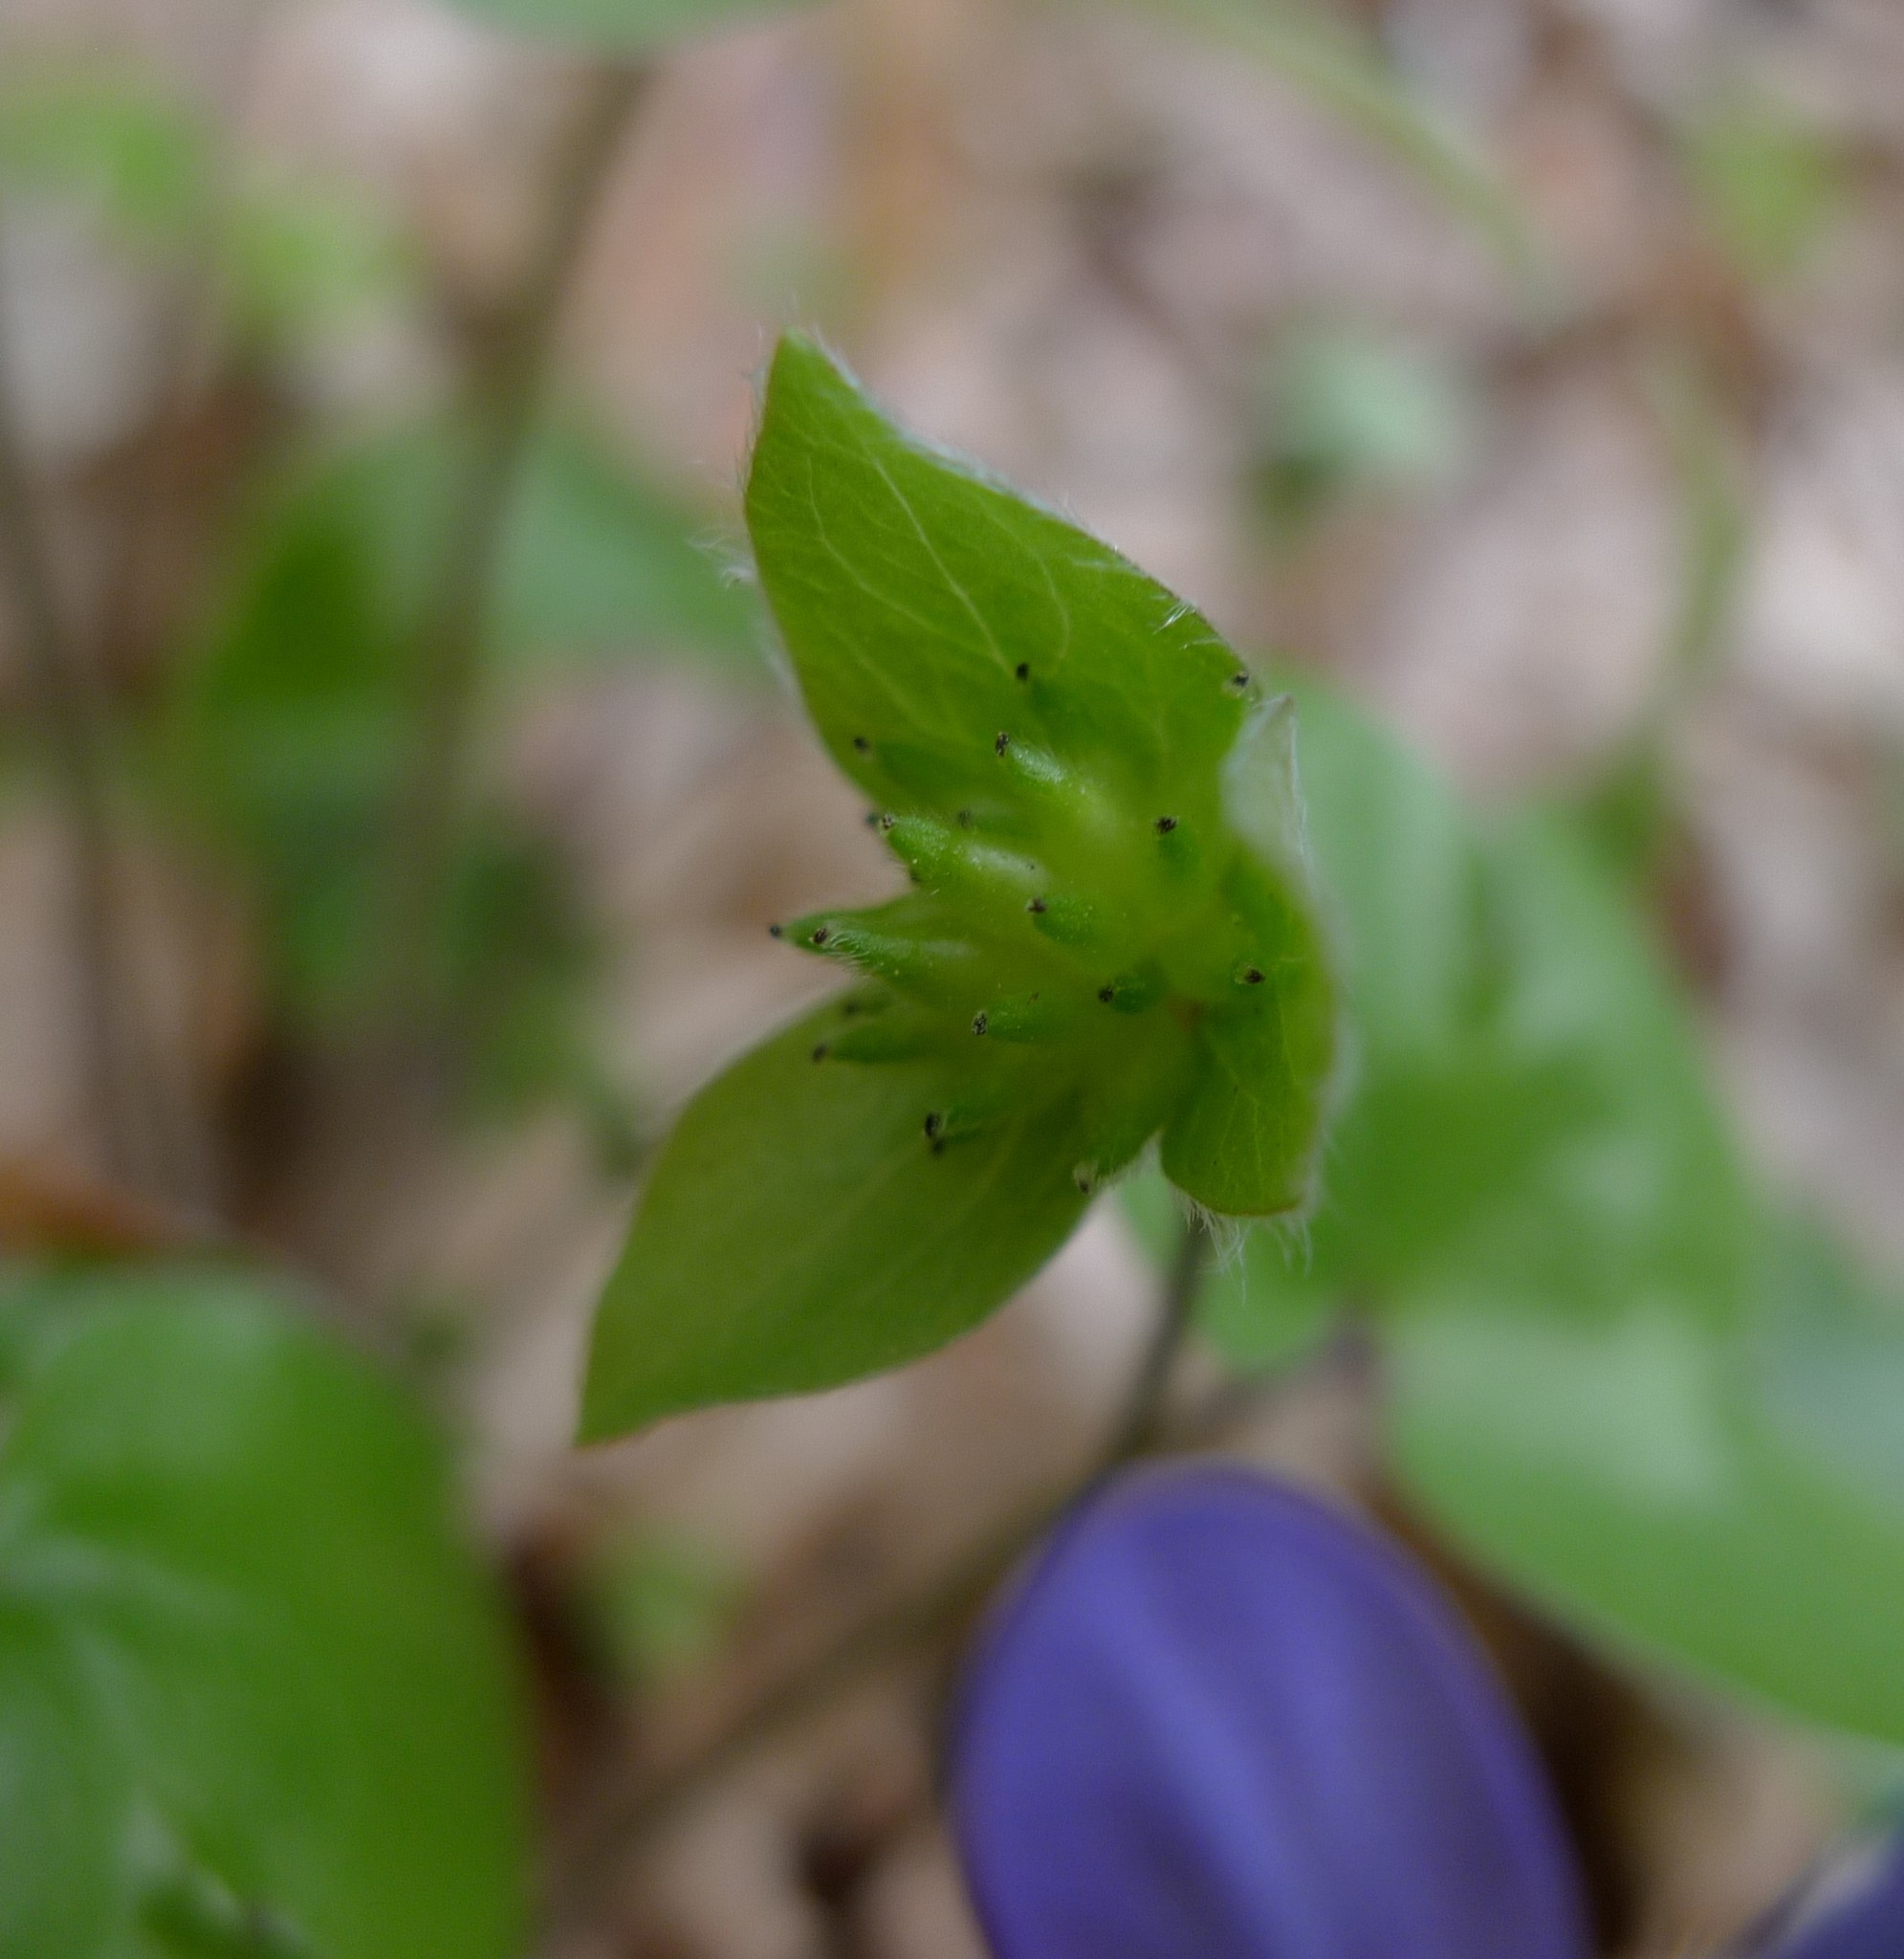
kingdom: Plantae
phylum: Tracheophyta
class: Magnoliopsida
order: Ranunculales
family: Ranunculaceae
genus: Hepatica
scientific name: Hepatica nobilis
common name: Liverleaf
